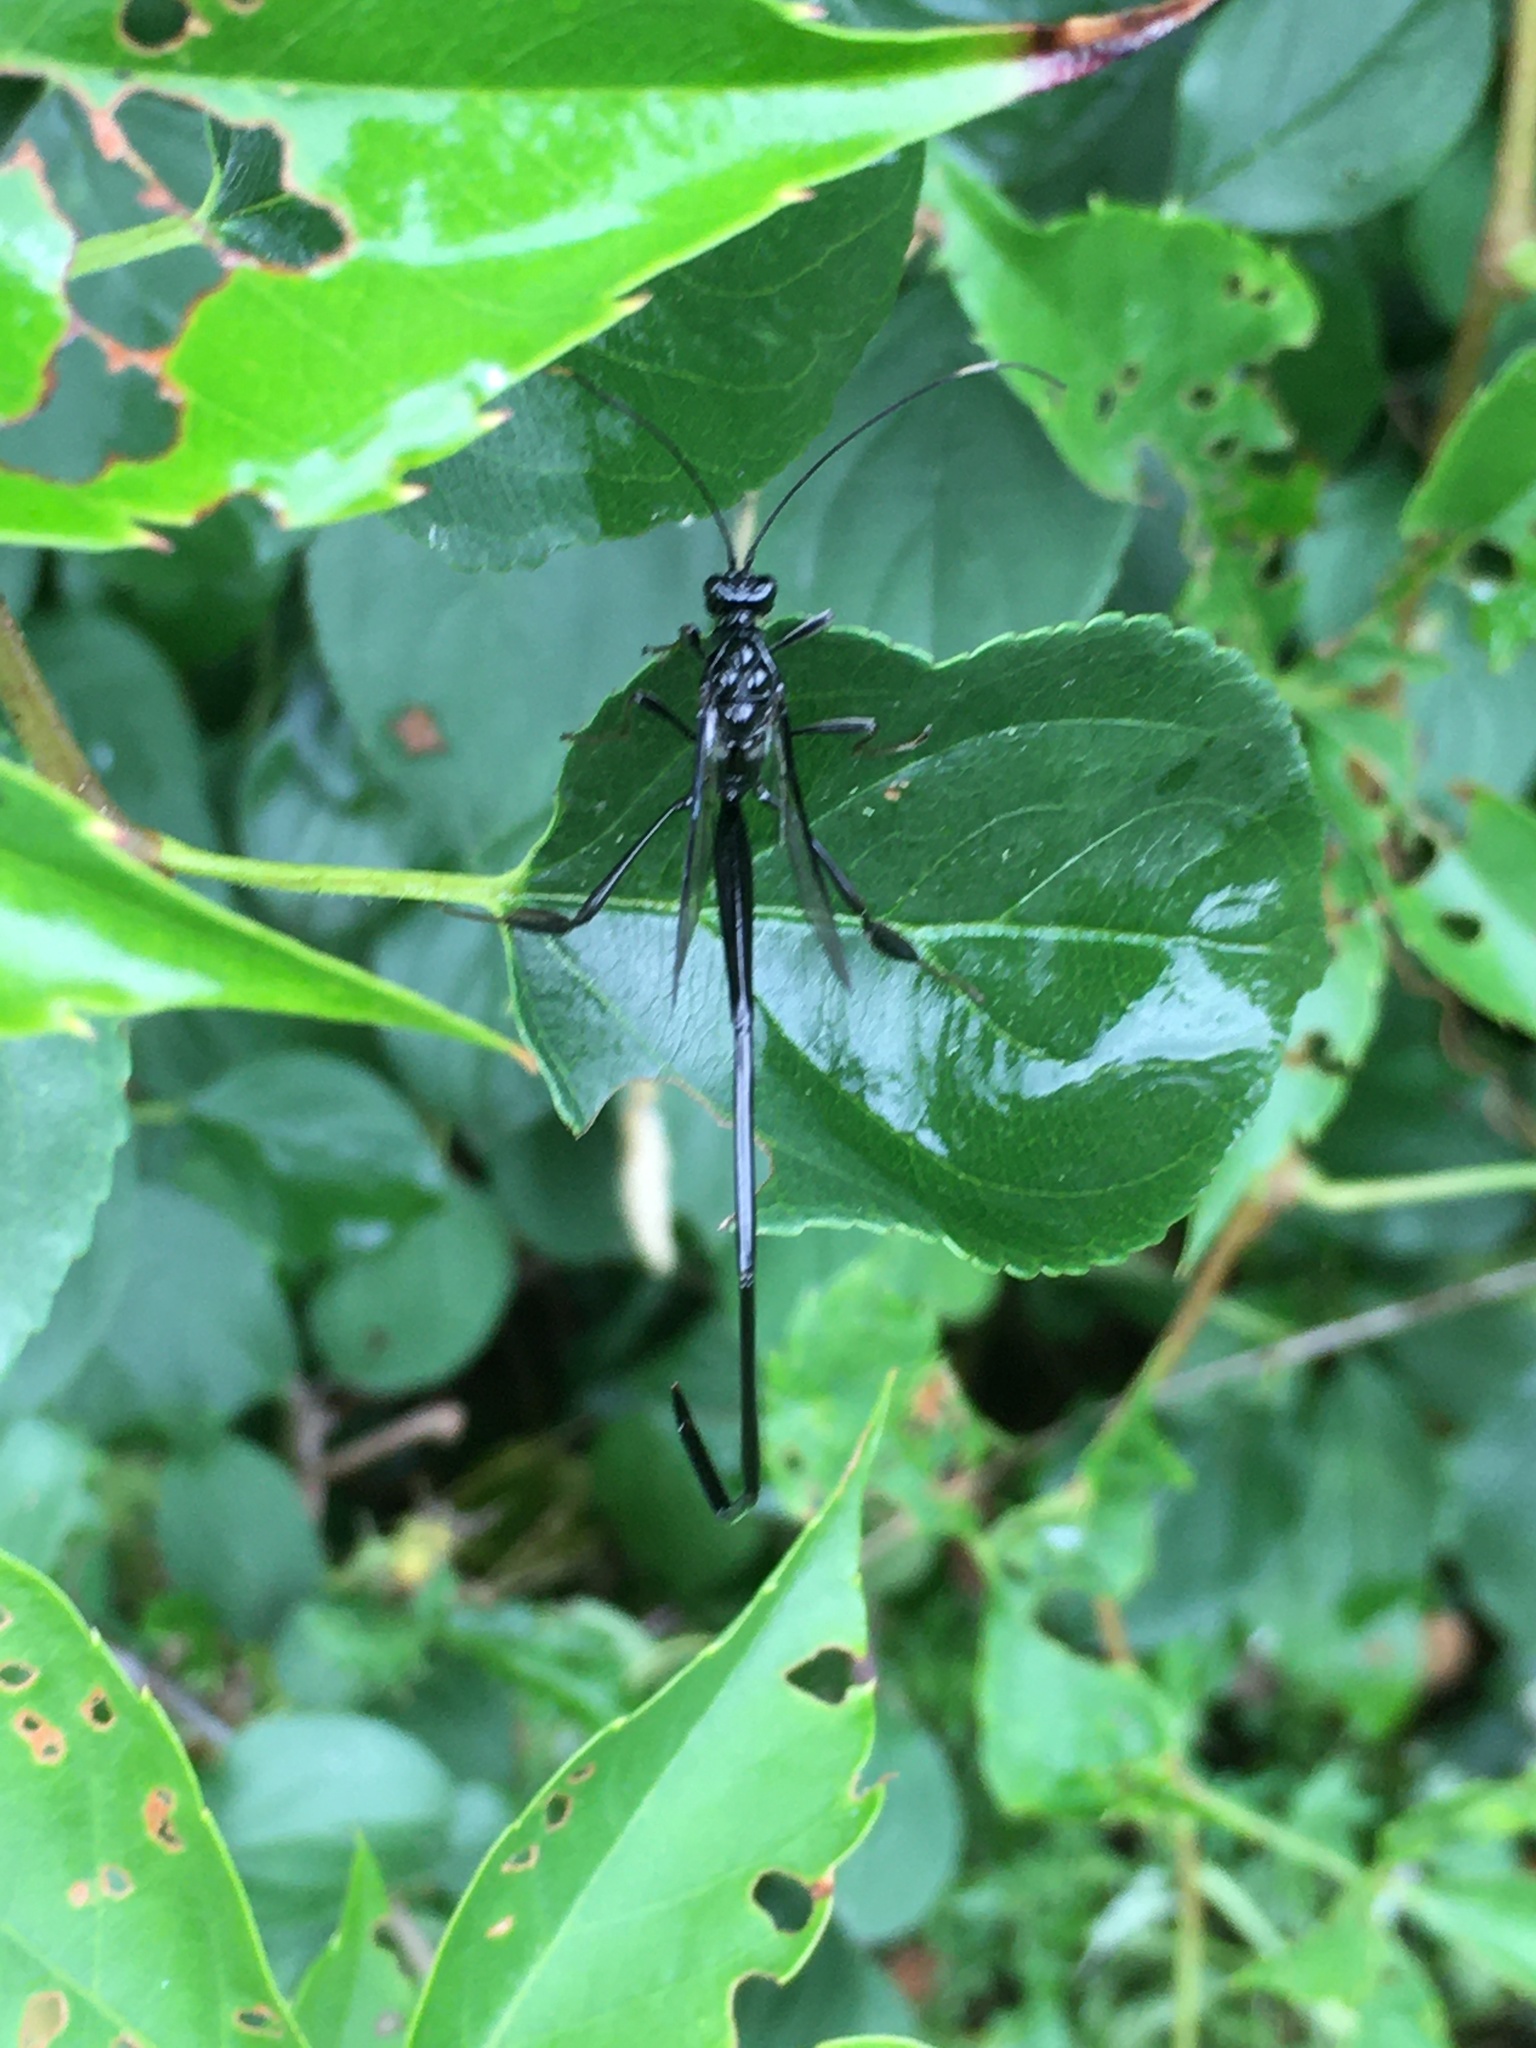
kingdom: Animalia
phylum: Arthropoda
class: Insecta
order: Hymenoptera
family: Pelecinidae
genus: Pelecinus
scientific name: Pelecinus polyturator
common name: American pelecinid wasp
